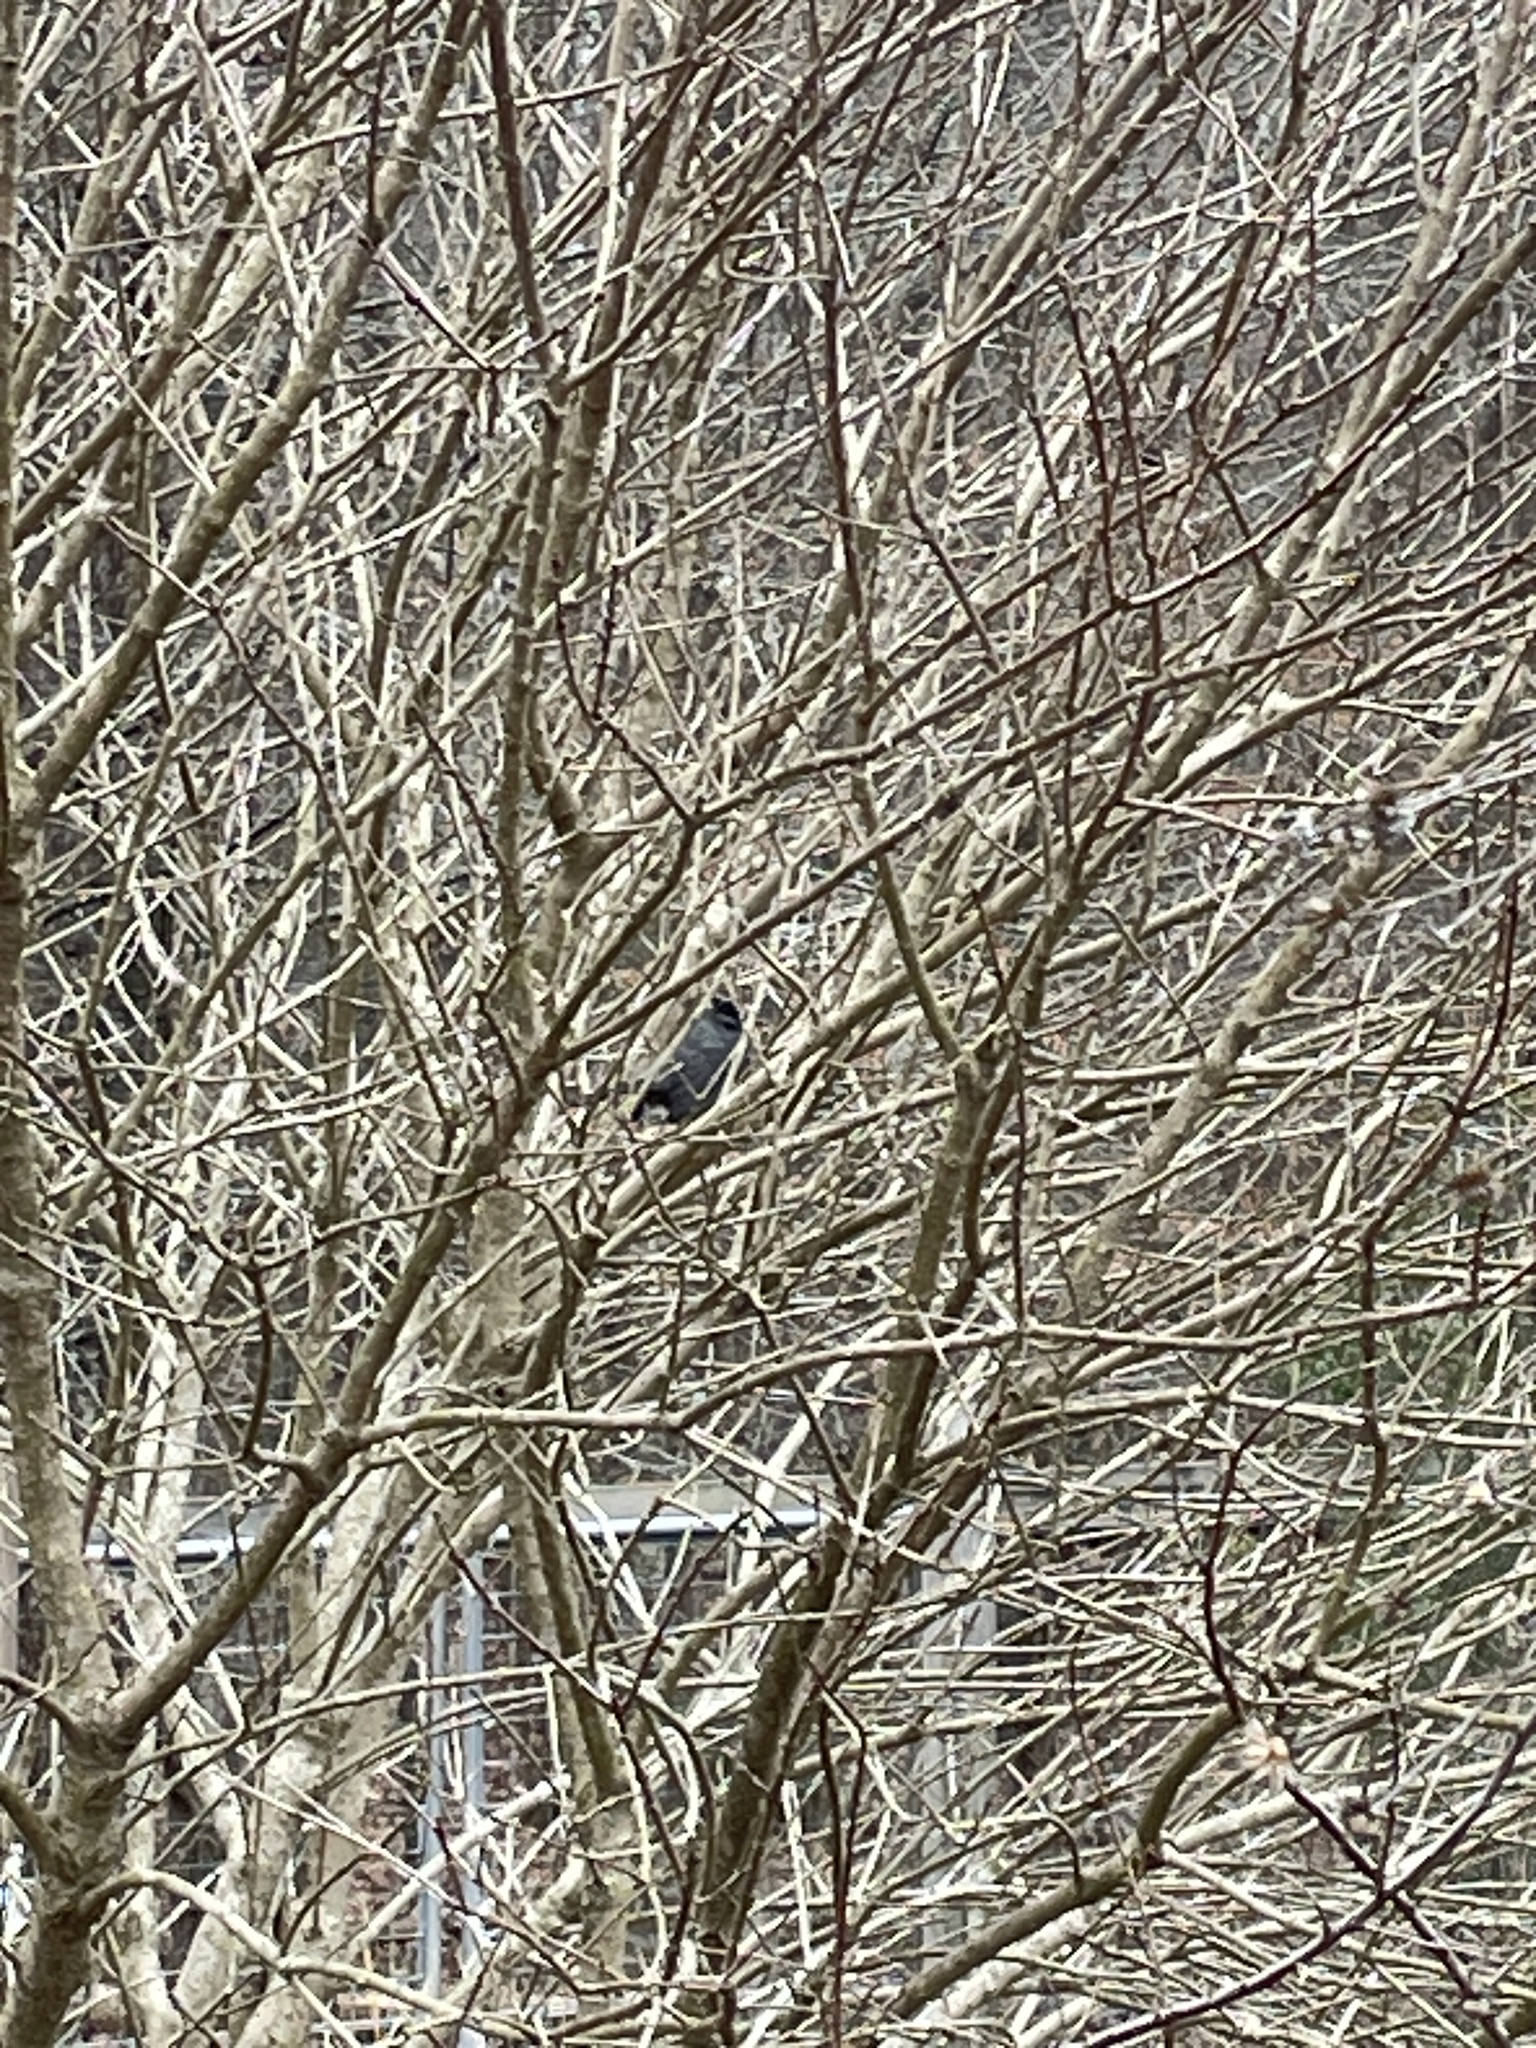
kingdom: Animalia
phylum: Chordata
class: Aves
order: Passeriformes
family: Mimidae
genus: Dumetella
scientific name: Dumetella carolinensis
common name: Gray catbird
